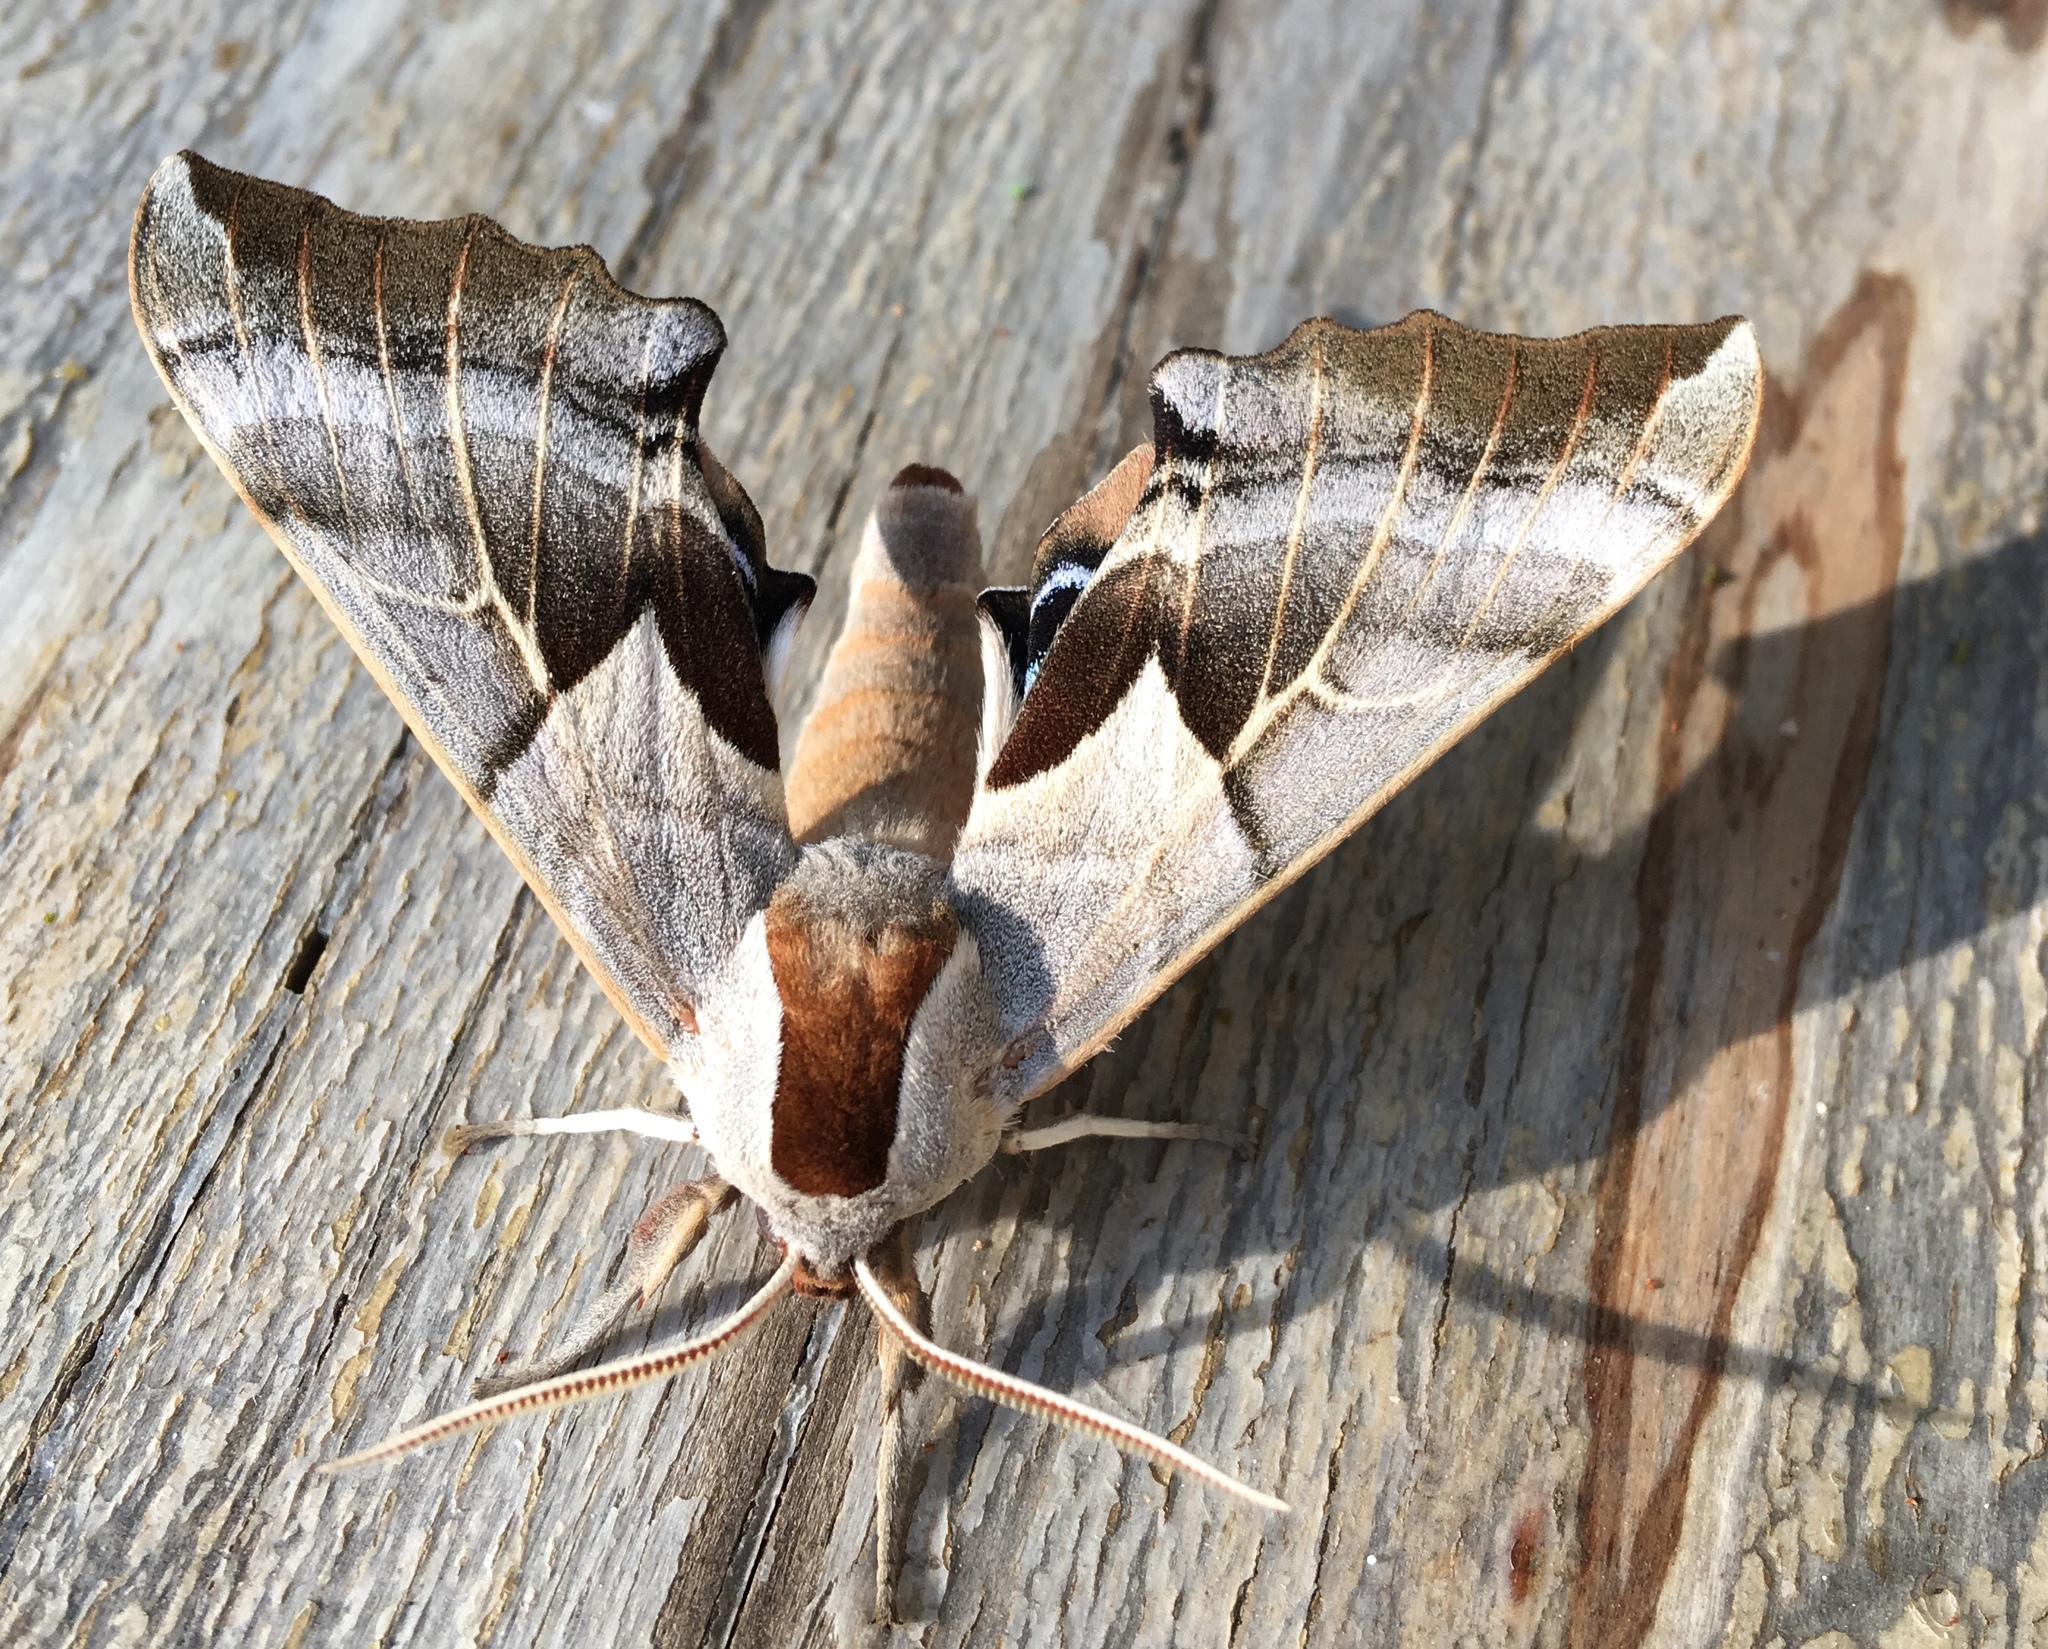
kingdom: Animalia
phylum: Arthropoda
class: Insecta
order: Lepidoptera
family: Sphingidae
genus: Smerinthus
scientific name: Smerinthus saliceti
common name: Salicet sphinx
